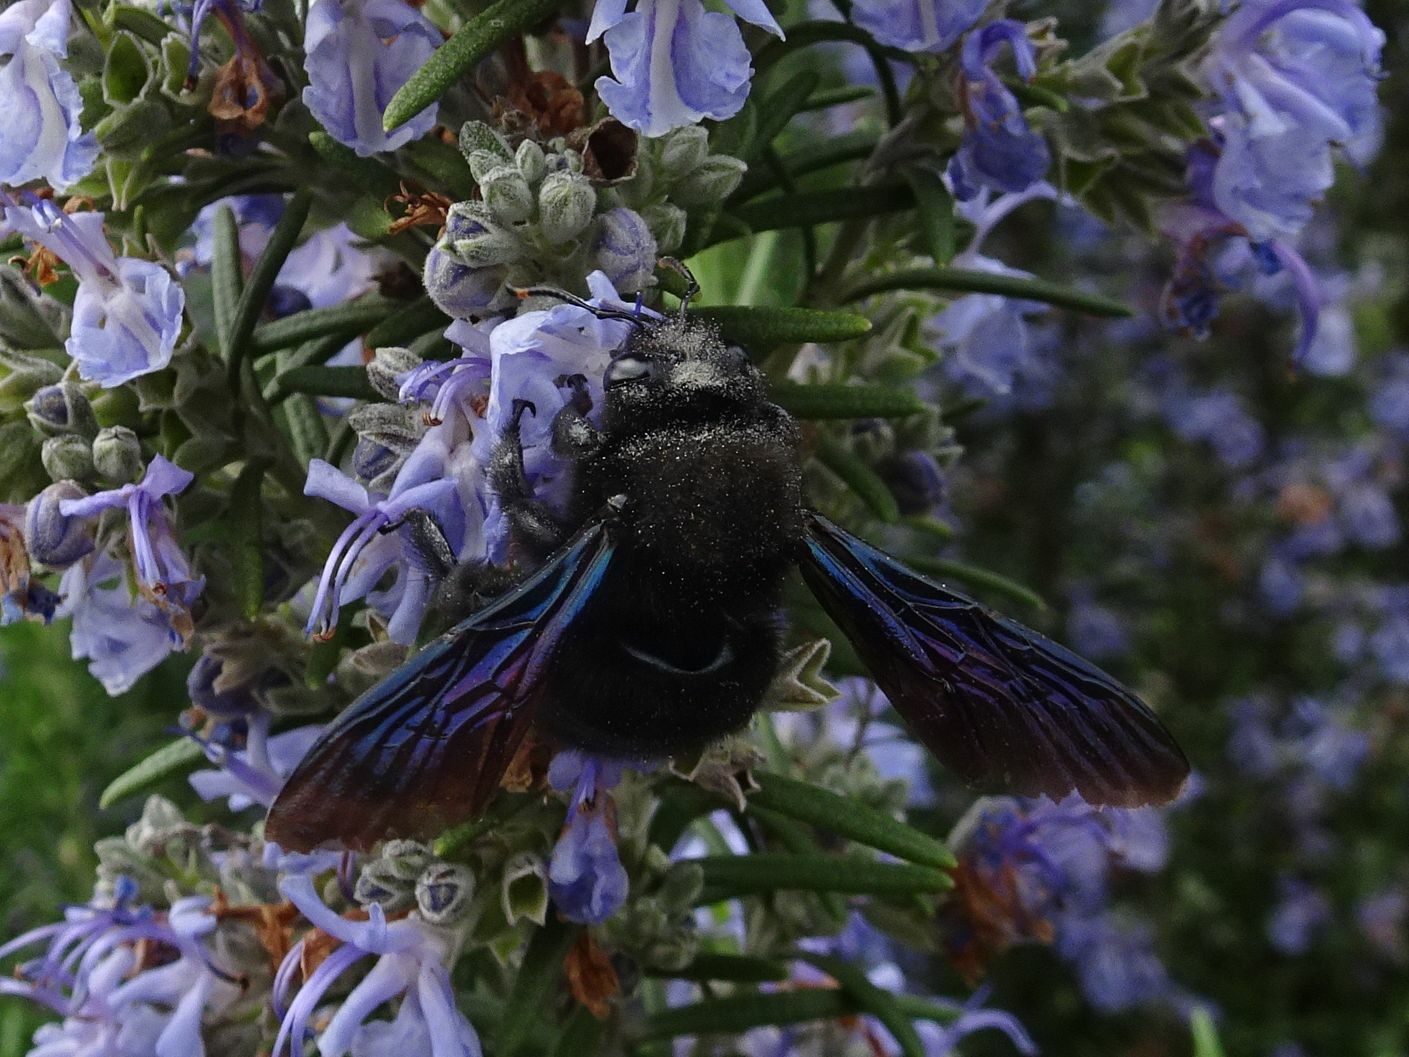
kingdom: Animalia
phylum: Arthropoda
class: Insecta
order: Hymenoptera
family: Apidae
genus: Xylocopa
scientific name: Xylocopa violacea
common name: Violet carpenter bee
